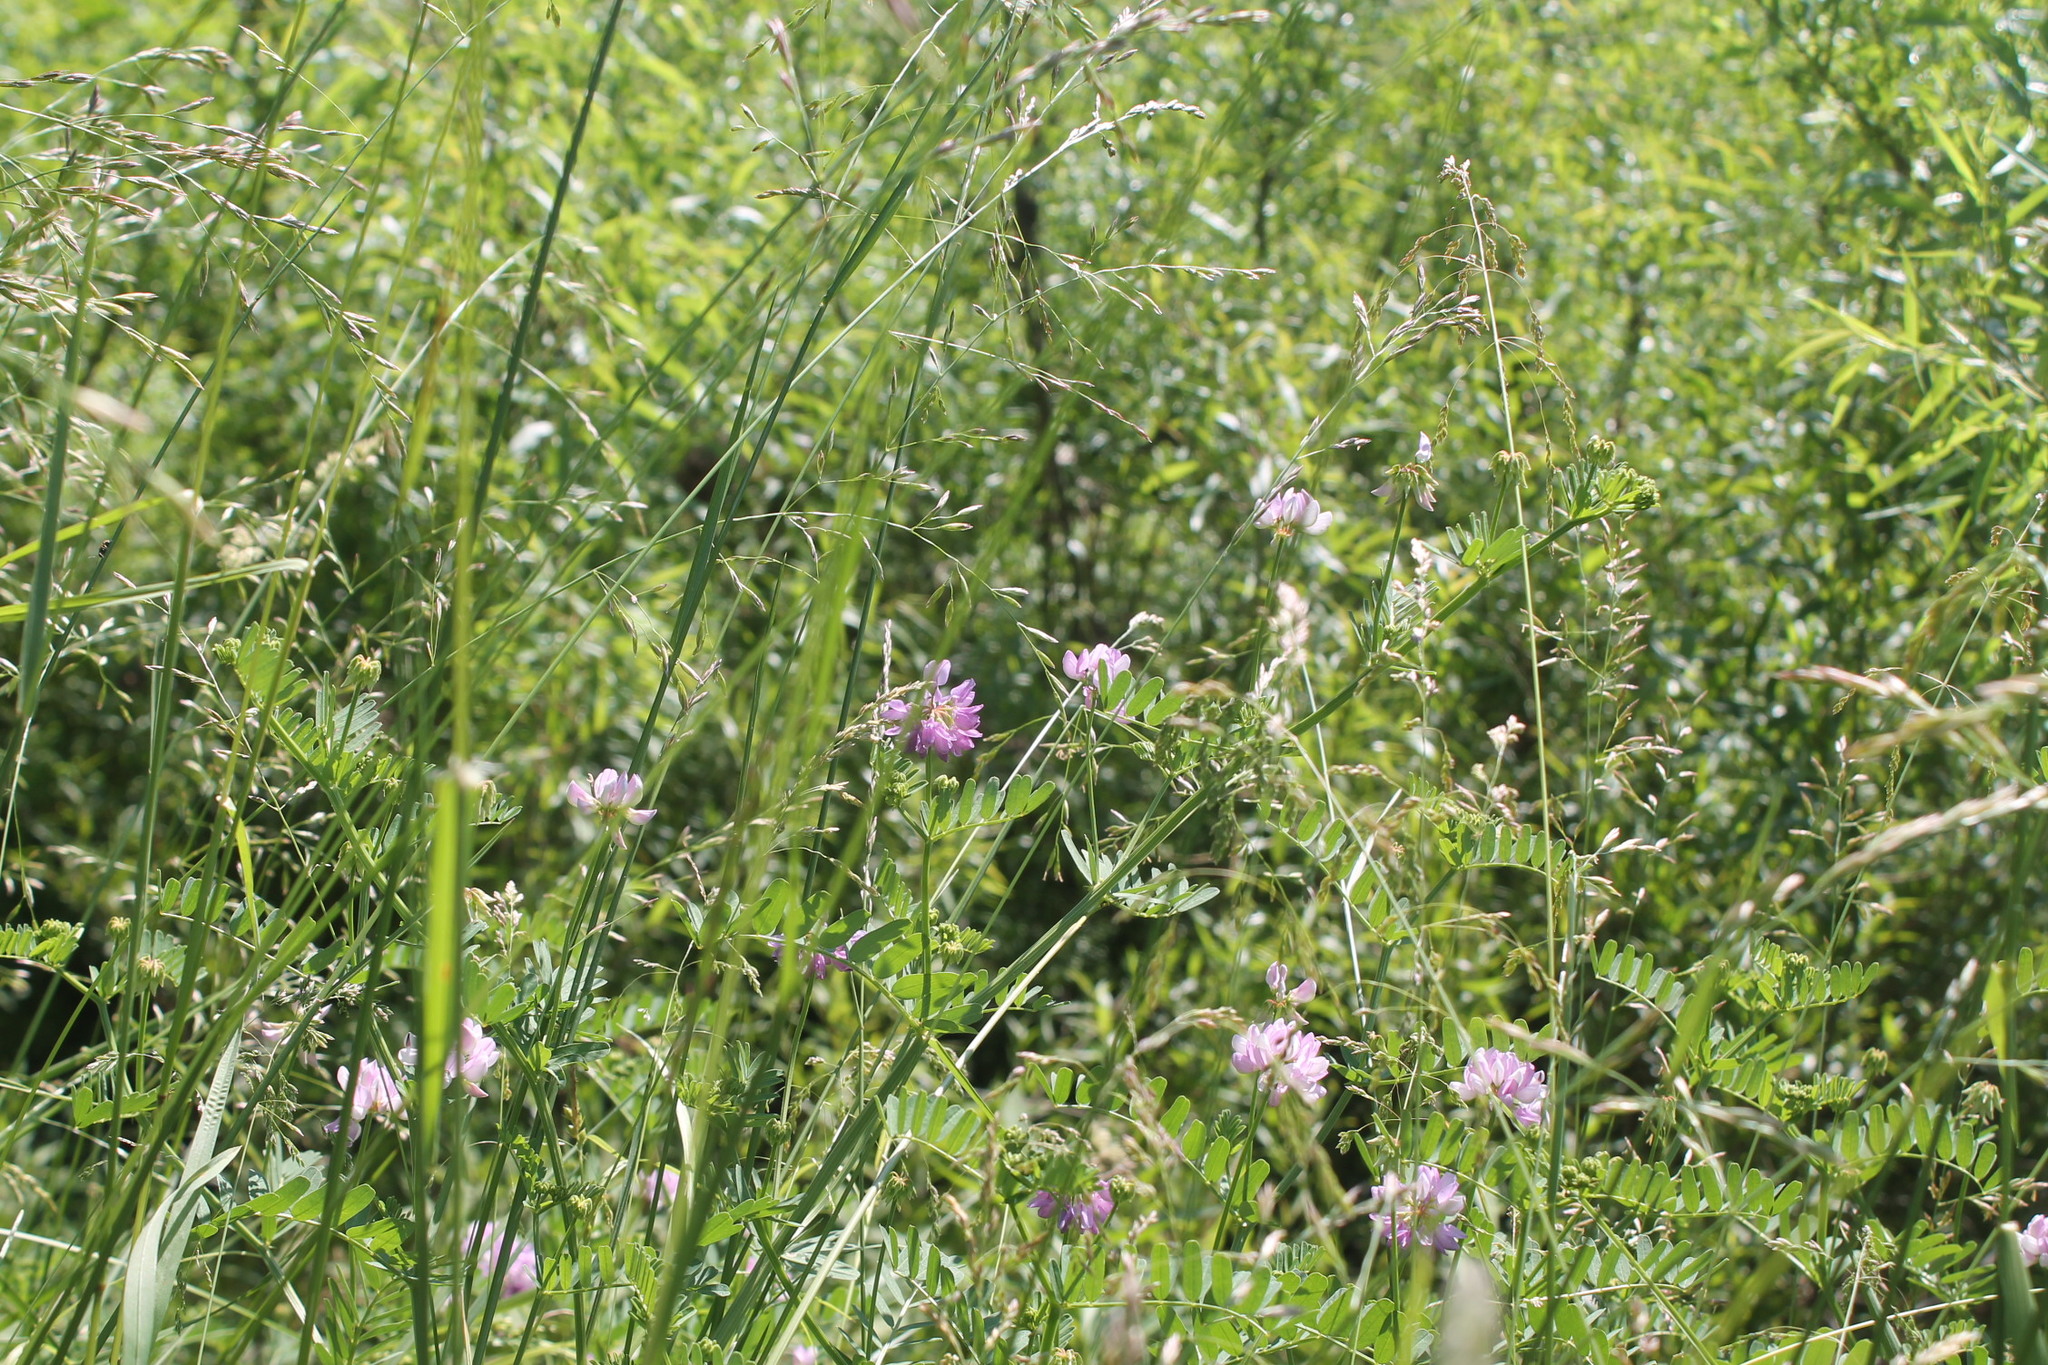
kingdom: Plantae
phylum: Tracheophyta
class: Magnoliopsida
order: Fabales
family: Fabaceae
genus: Coronilla
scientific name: Coronilla varia
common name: Crownvetch
